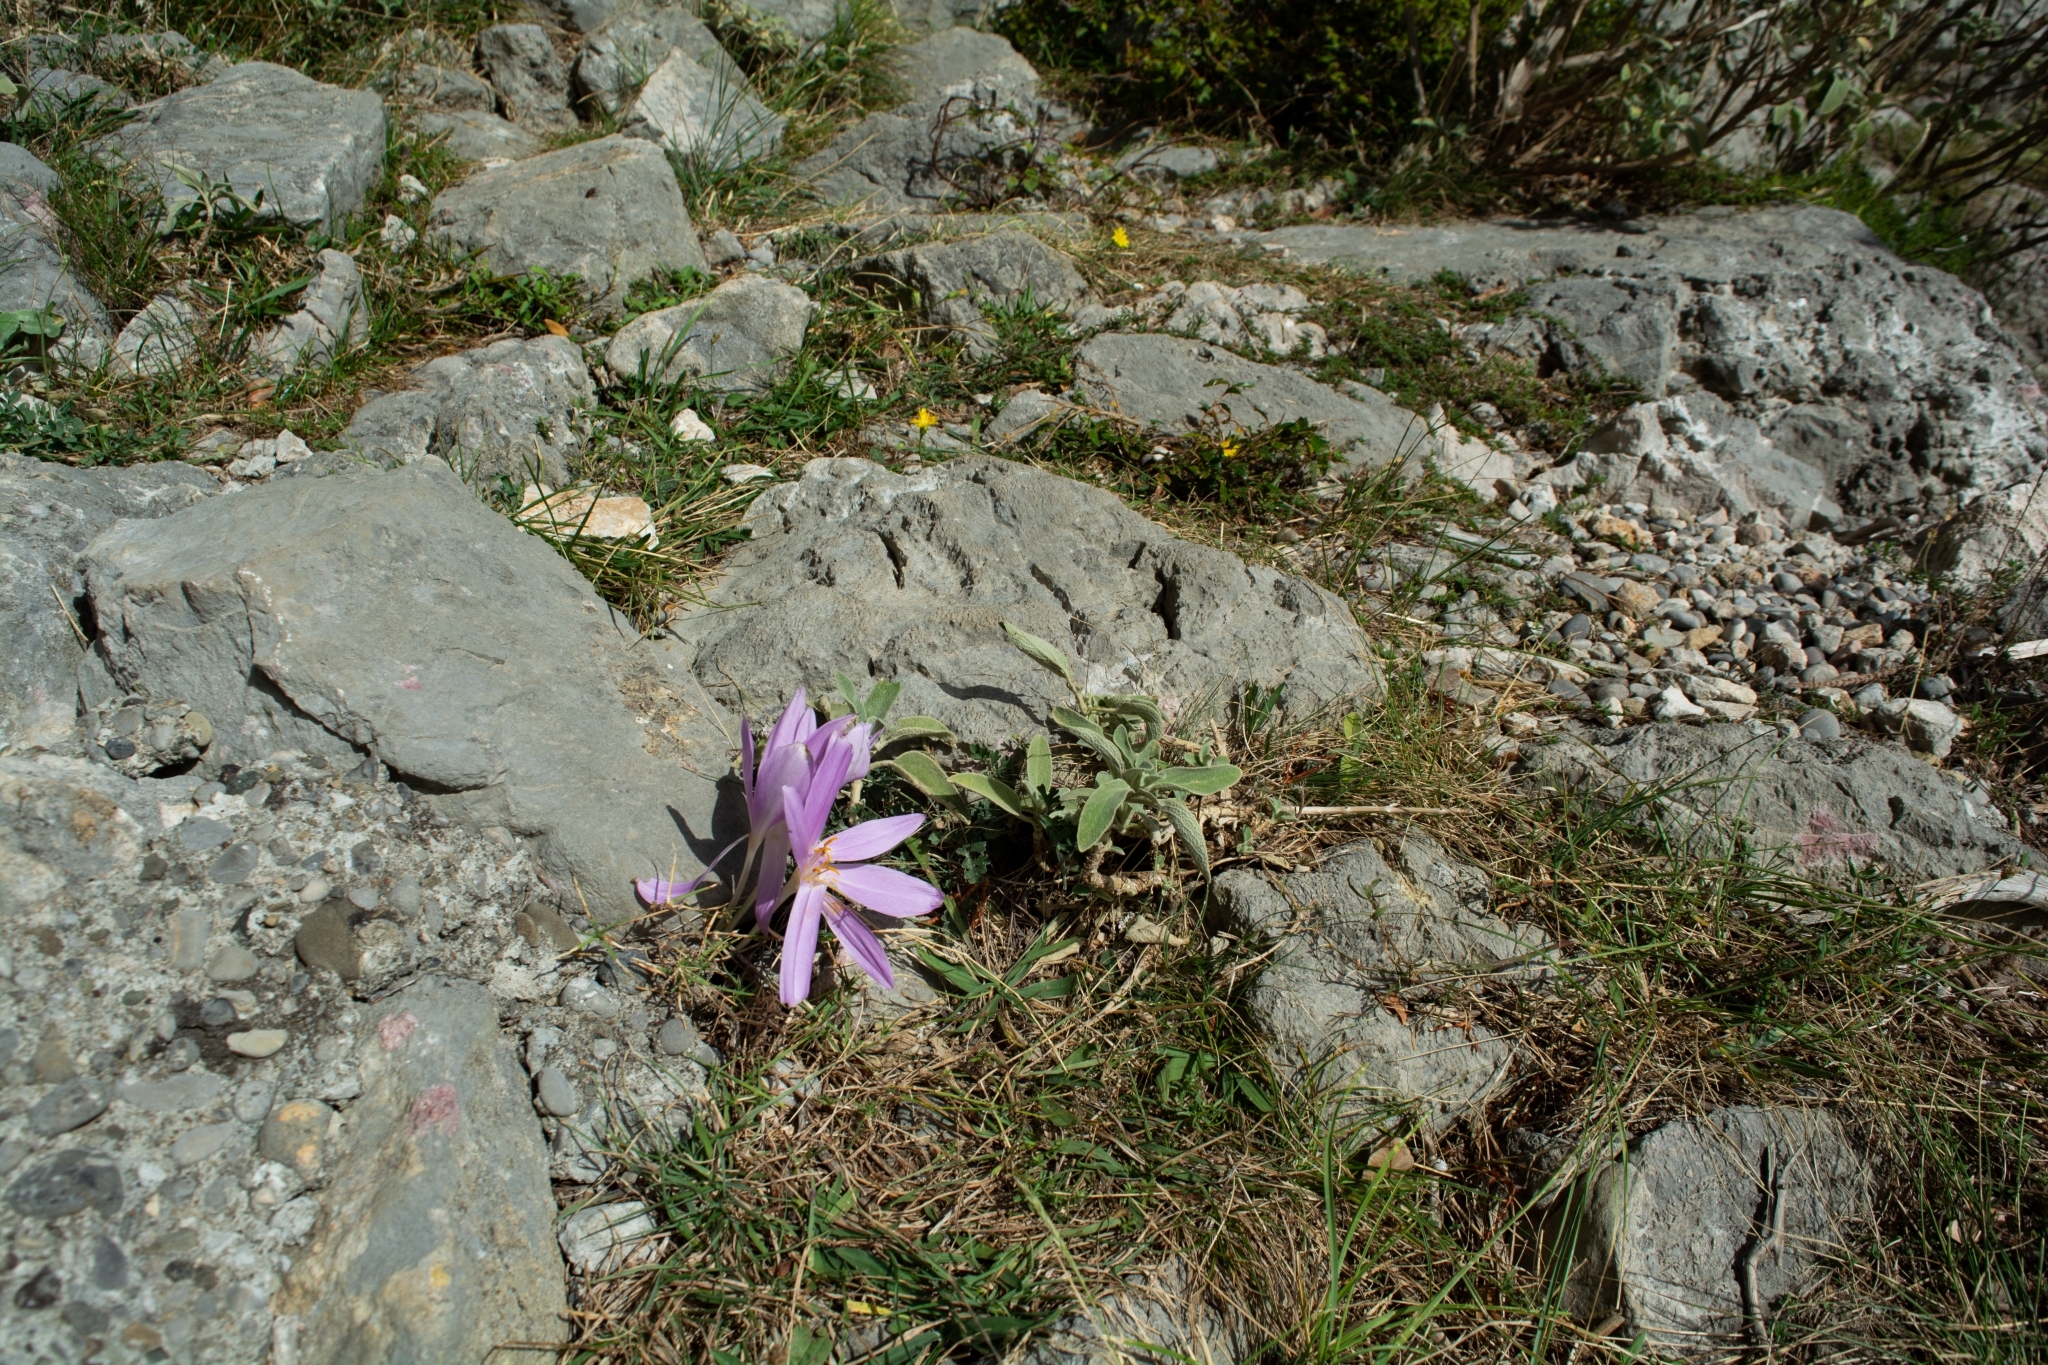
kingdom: Plantae
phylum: Tracheophyta
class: Liliopsida
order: Liliales
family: Colchicaceae
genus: Colchicum
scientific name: Colchicum haynaldii
